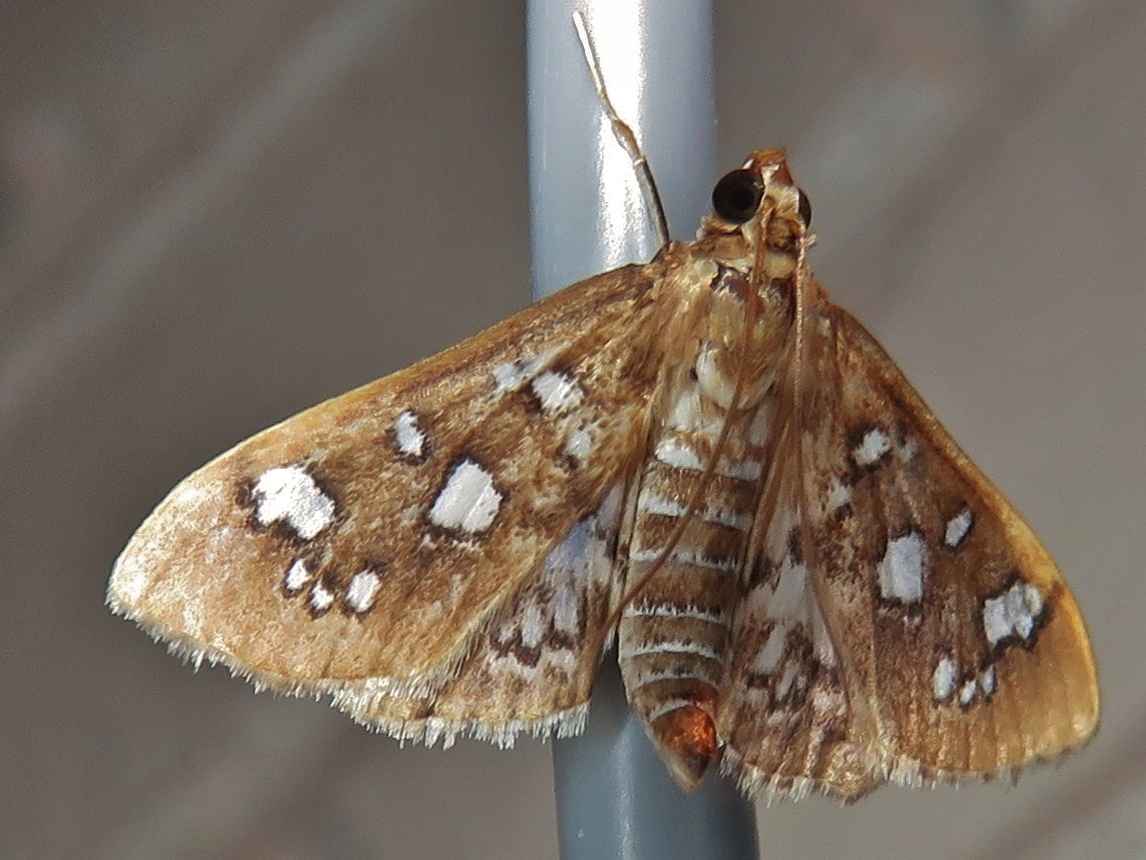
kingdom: Animalia
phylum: Arthropoda
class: Insecta
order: Lepidoptera
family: Crambidae
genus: Samea
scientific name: Samea baccatalis
